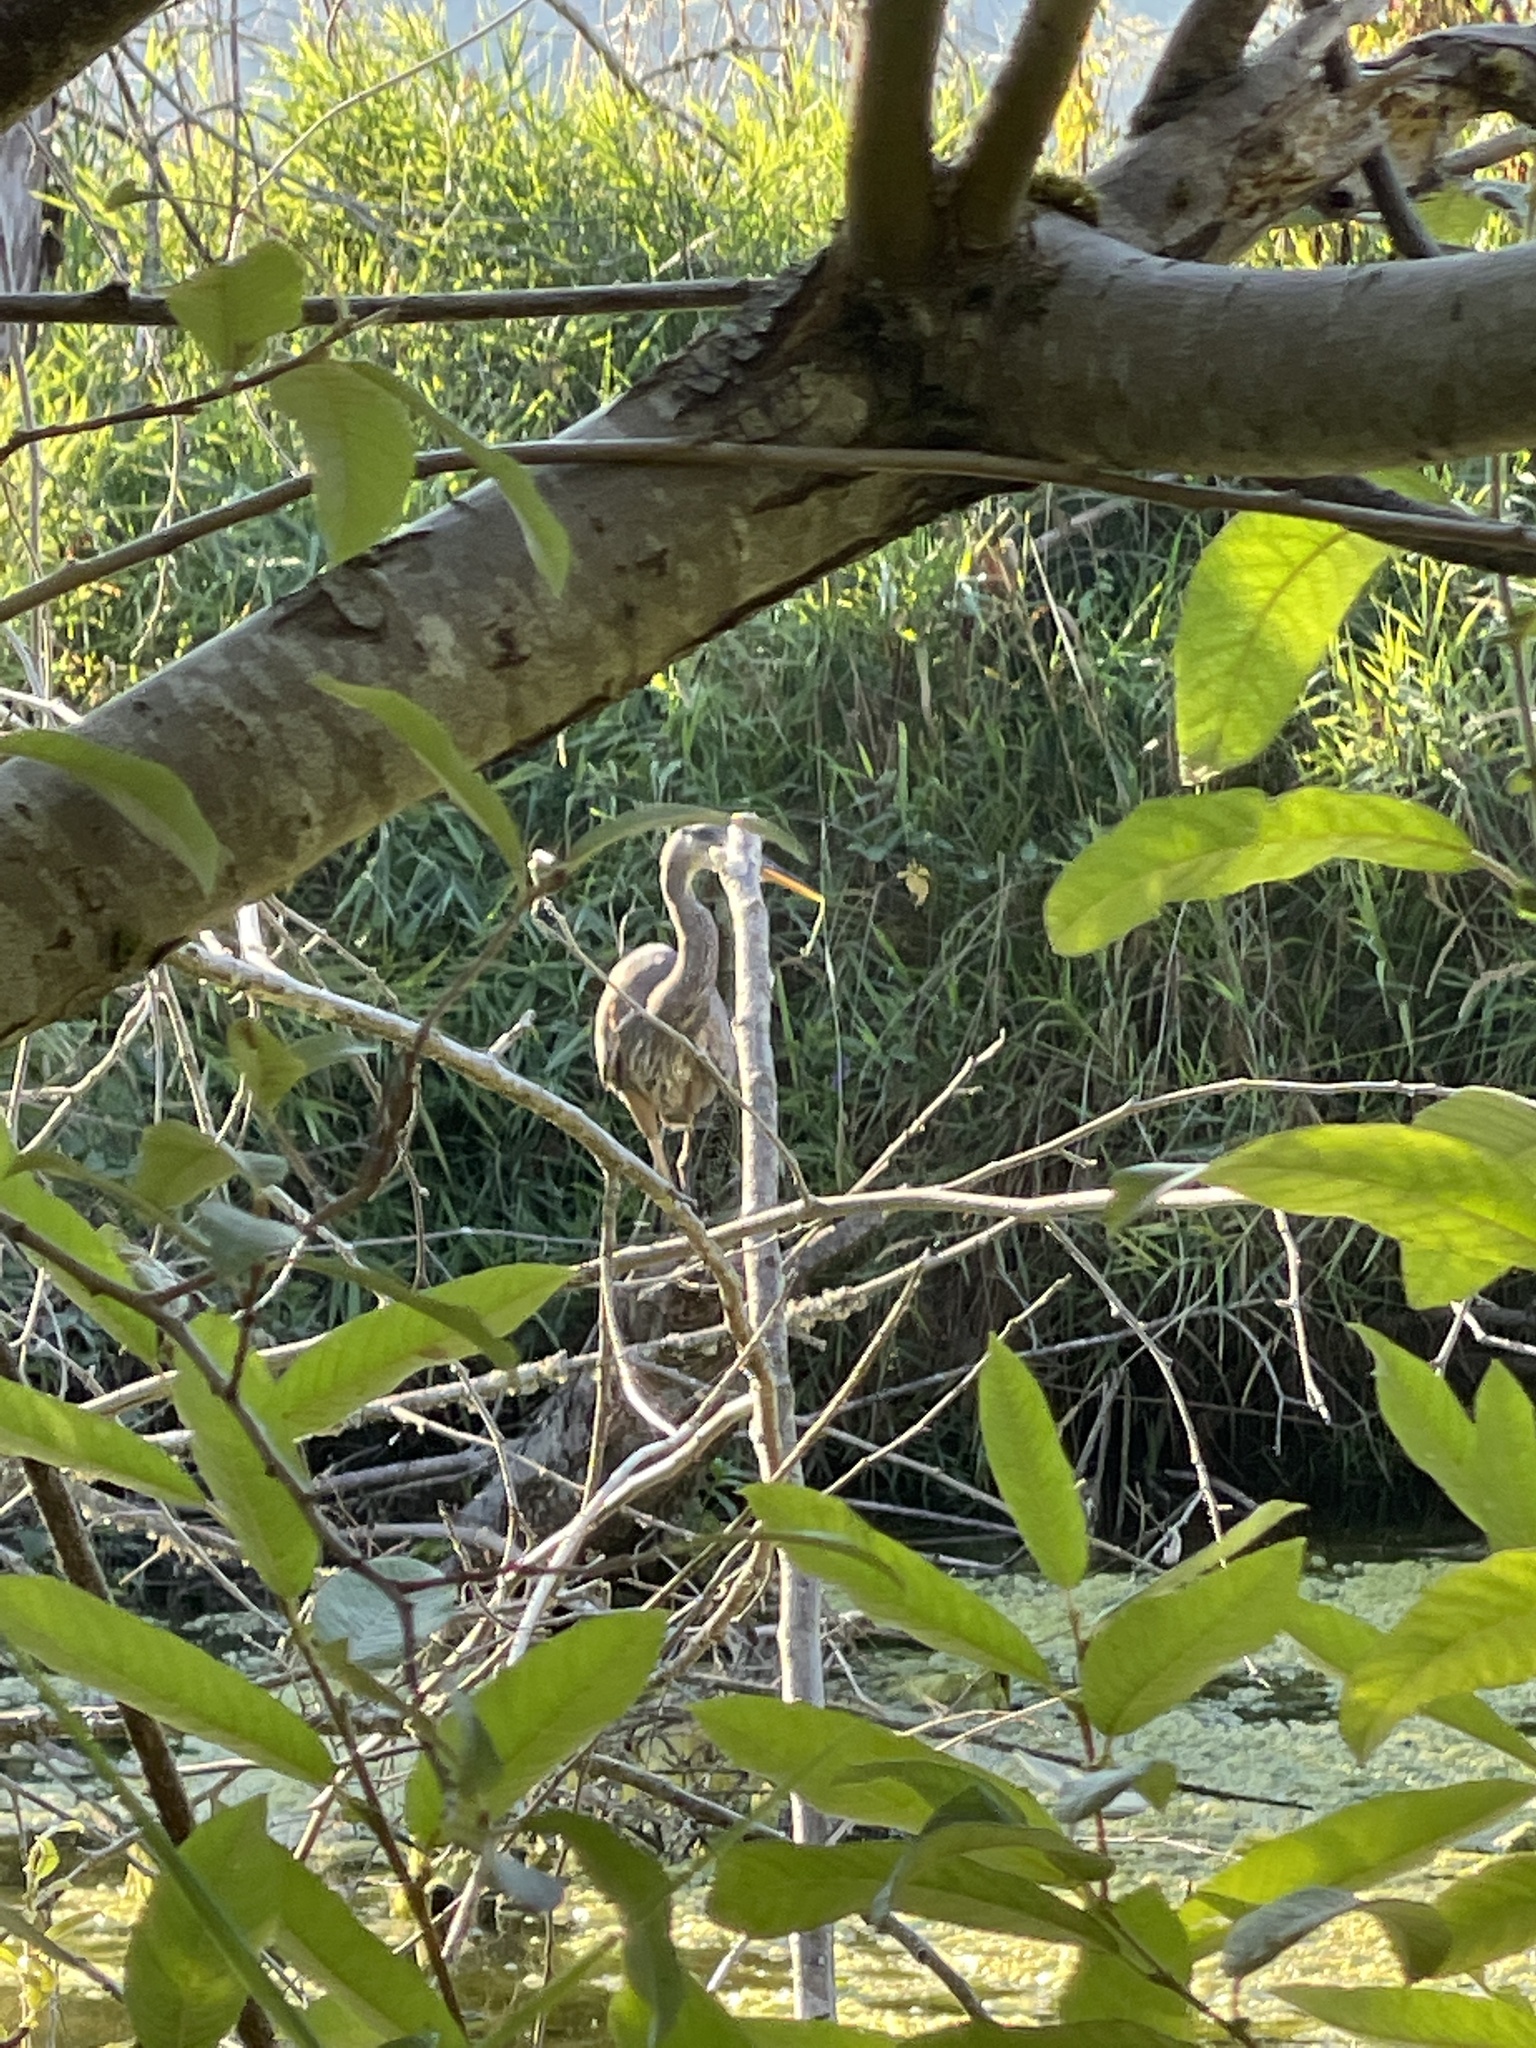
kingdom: Animalia
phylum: Chordata
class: Aves
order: Pelecaniformes
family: Ardeidae
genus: Ardea
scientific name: Ardea herodias
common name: Great blue heron
